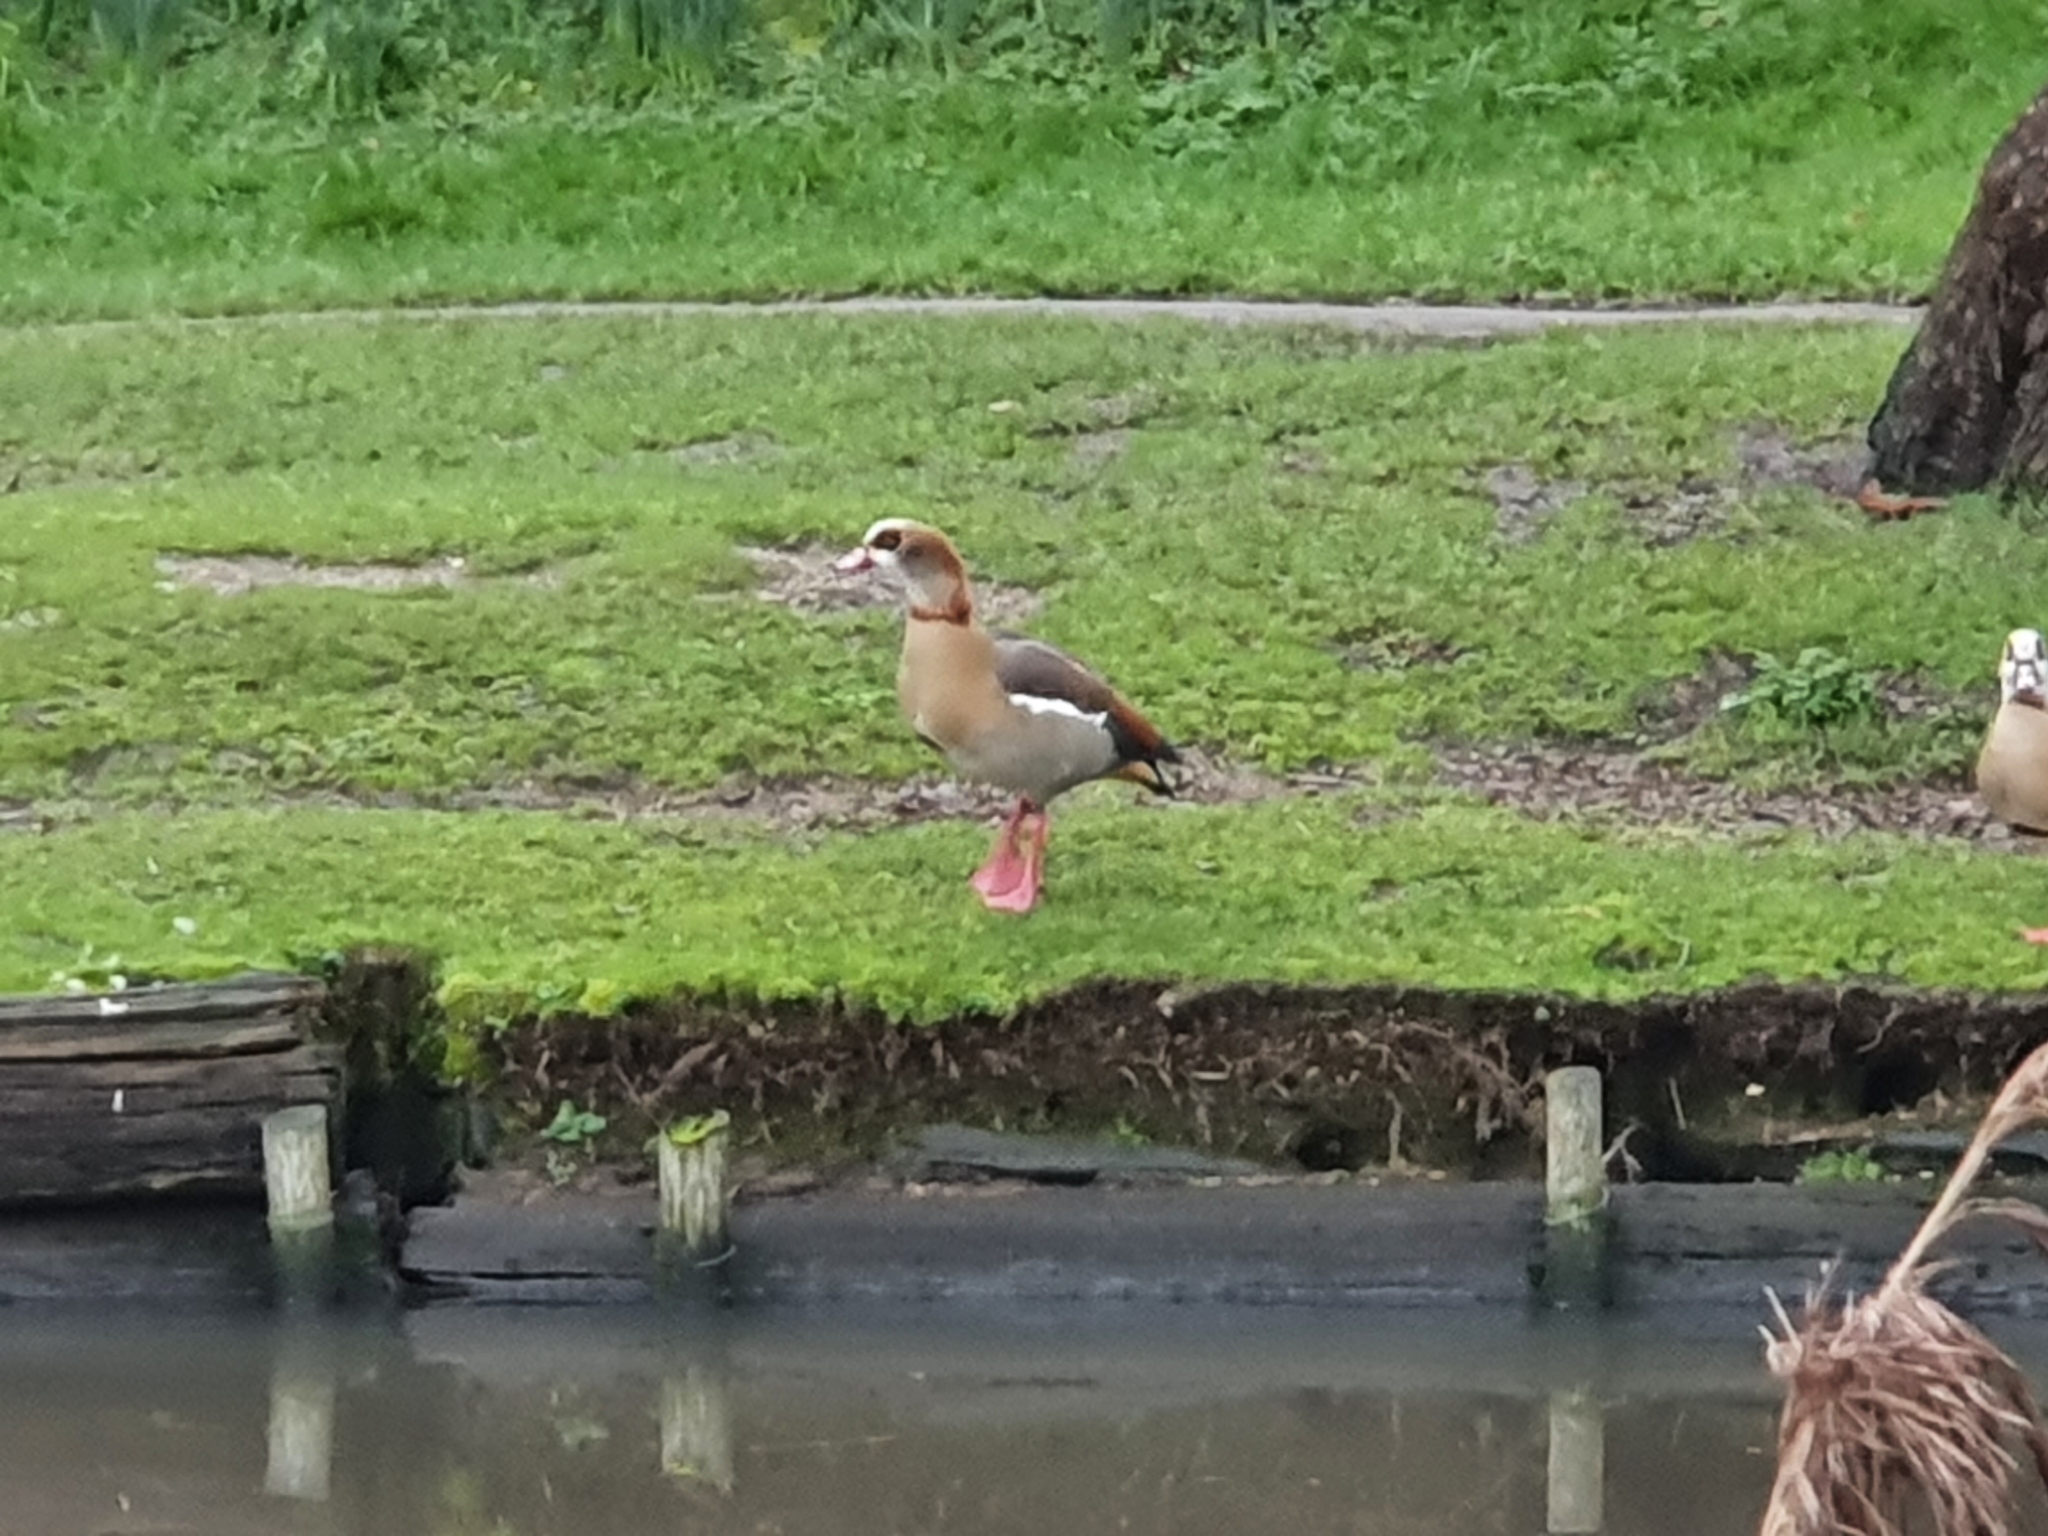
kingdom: Animalia
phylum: Chordata
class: Aves
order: Anseriformes
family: Anatidae
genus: Alopochen
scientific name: Alopochen aegyptiaca
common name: Egyptian goose
